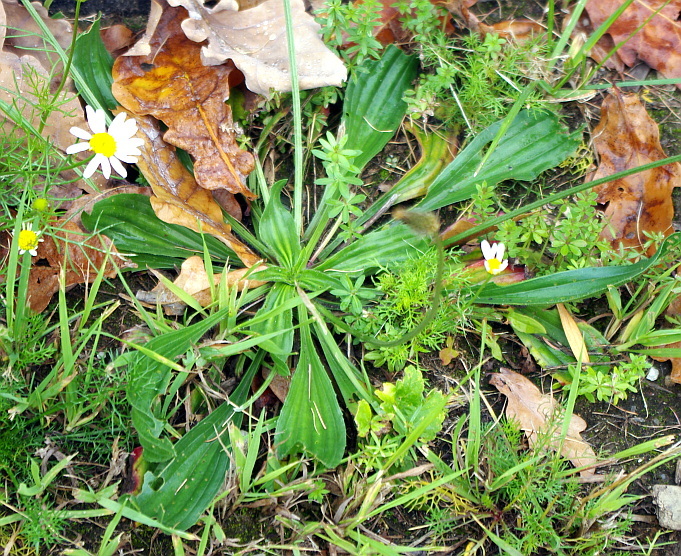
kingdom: Plantae
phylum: Tracheophyta
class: Magnoliopsida
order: Lamiales
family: Plantaginaceae
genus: Plantago
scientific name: Plantago lanceolata
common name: Ribwort plantain
